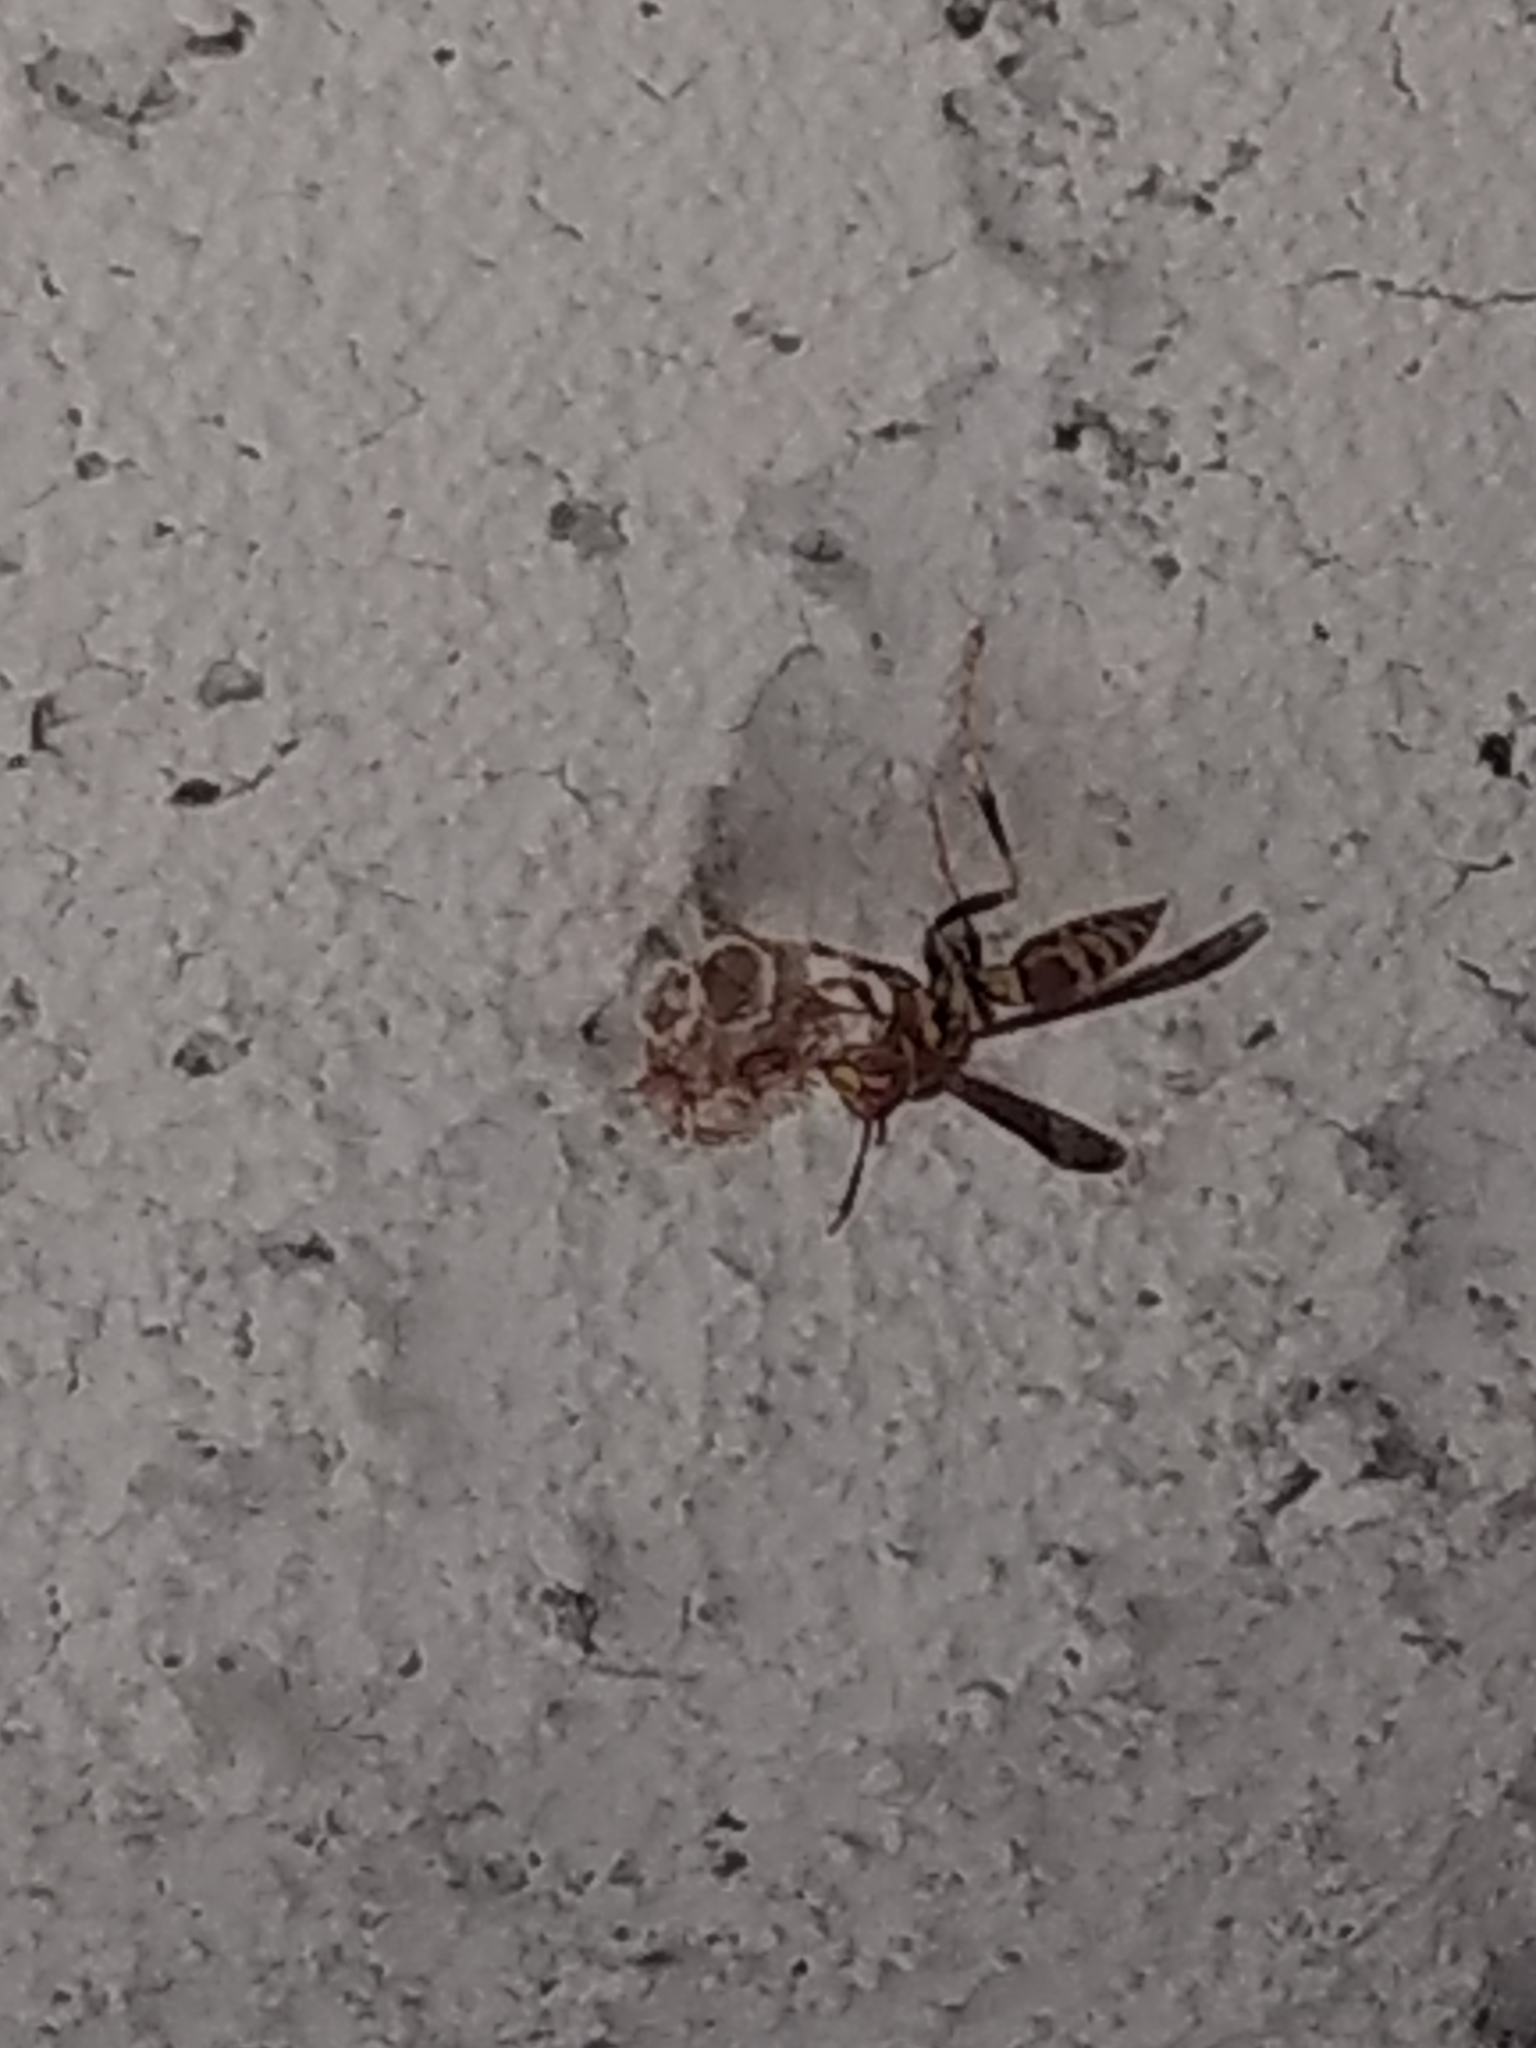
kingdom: Animalia
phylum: Arthropoda
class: Insecta
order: Hymenoptera
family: Eumenidae
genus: Polistes
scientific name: Polistes exclamans
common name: Paper wasp
